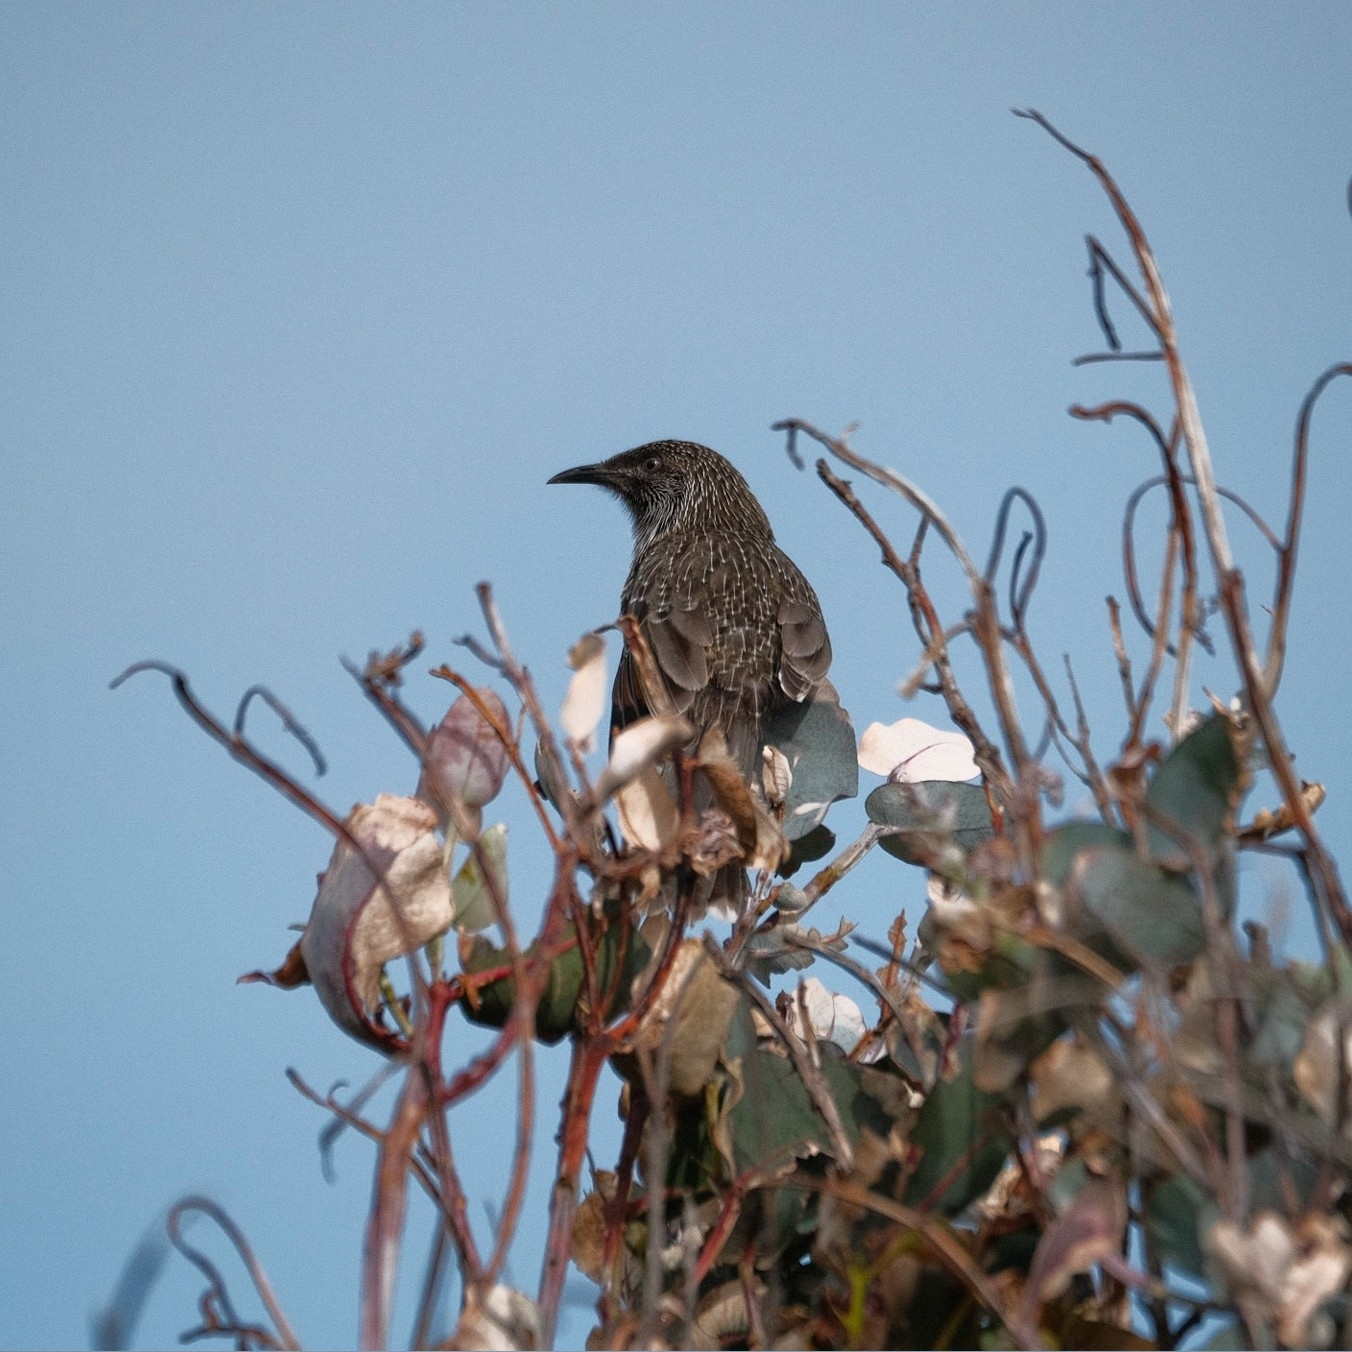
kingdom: Animalia
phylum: Chordata
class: Aves
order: Passeriformes
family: Meliphagidae
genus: Anthochaera
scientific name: Anthochaera chrysoptera
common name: Little wattlebird
